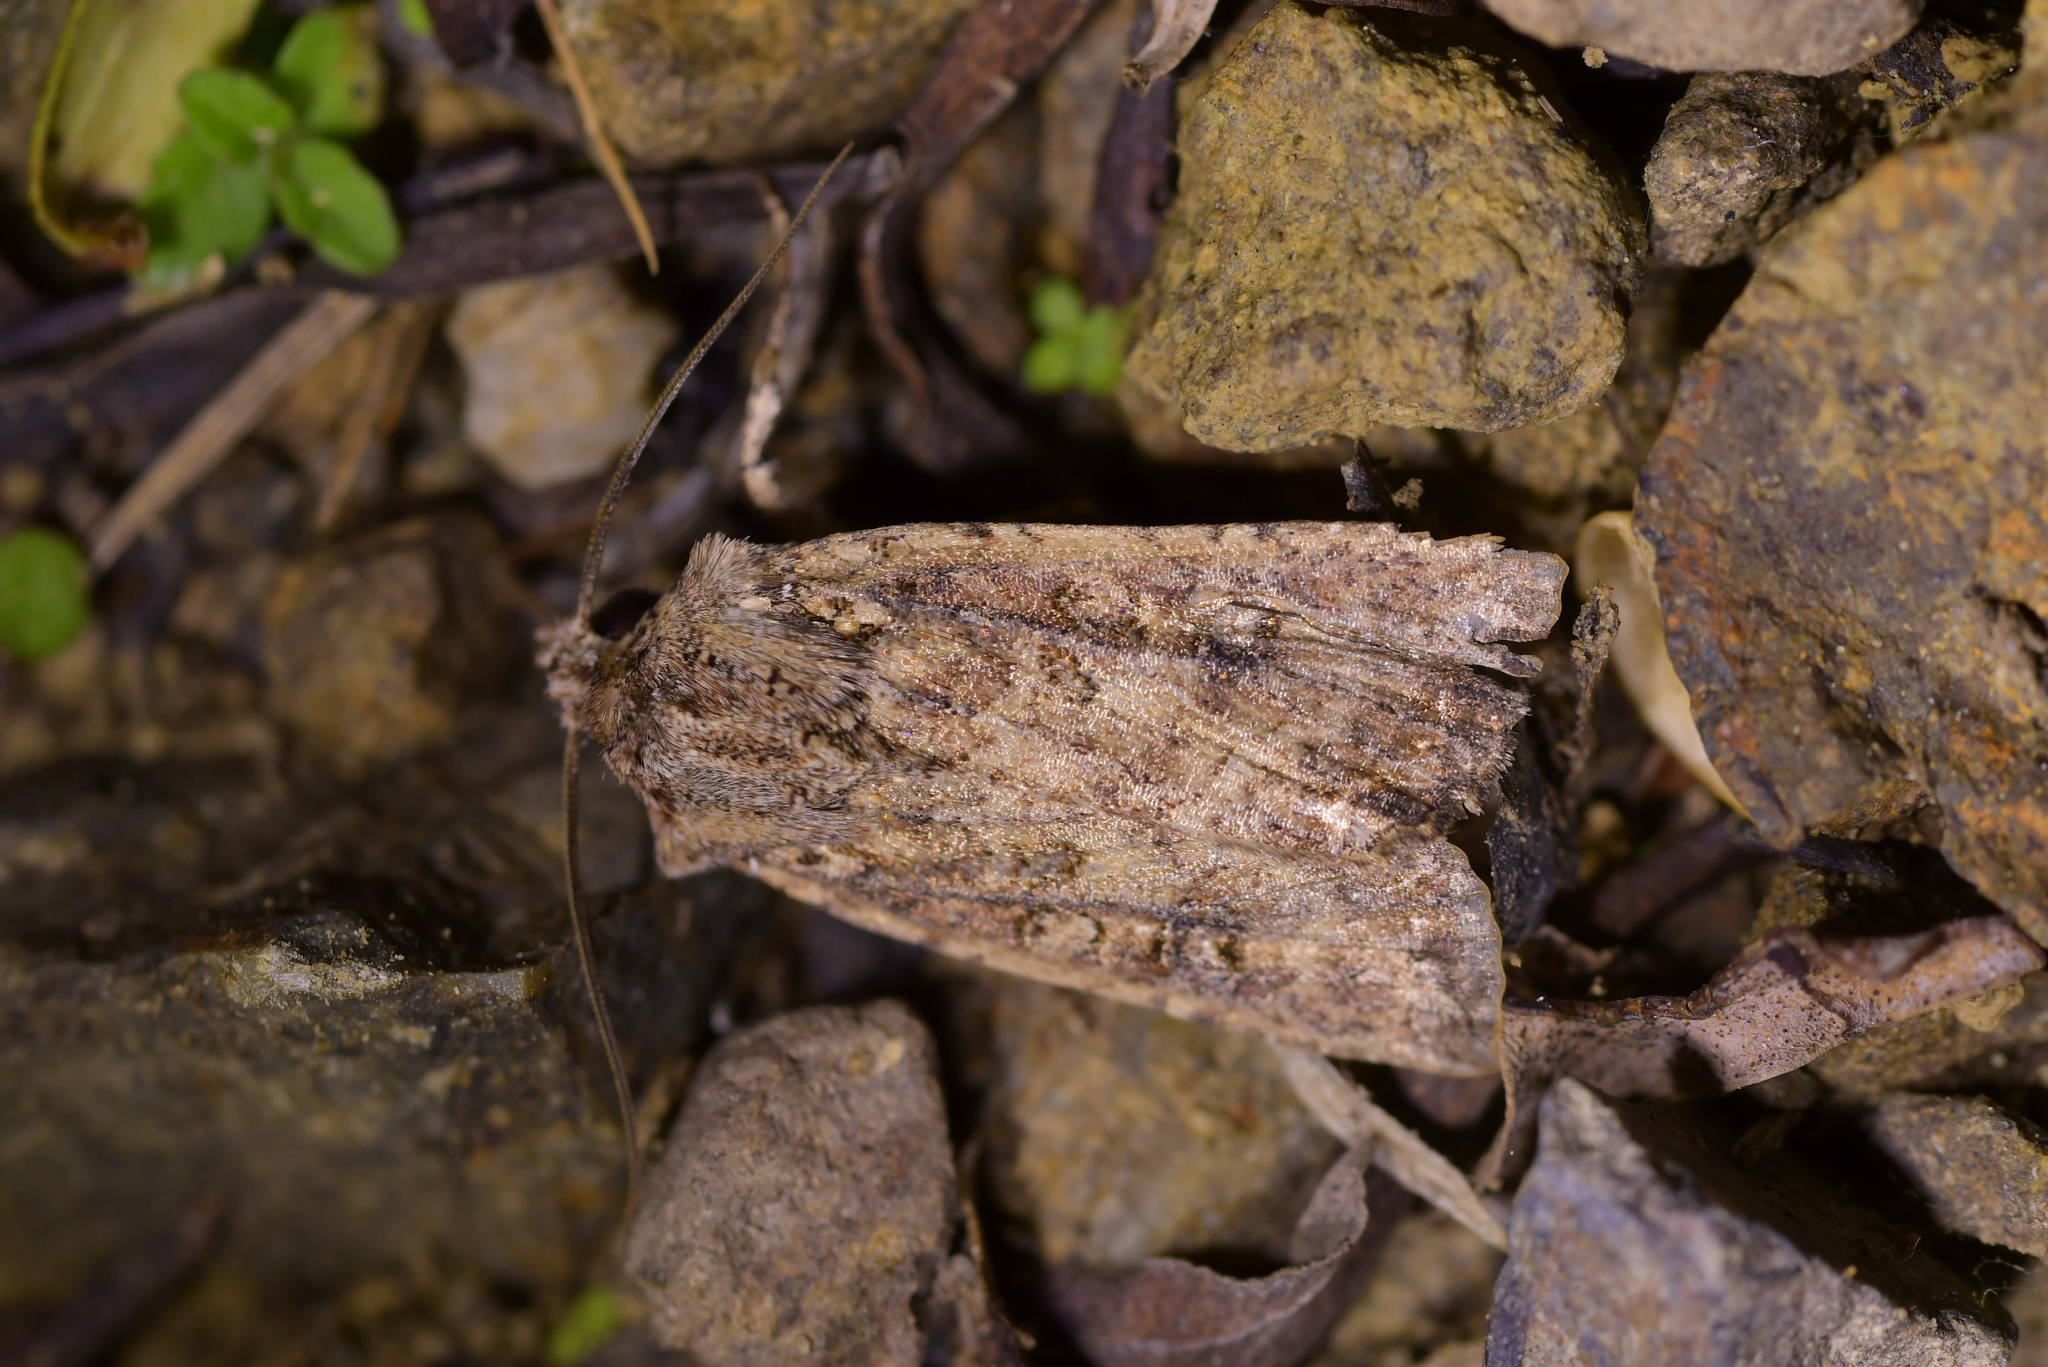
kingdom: Animalia
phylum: Arthropoda
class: Insecta
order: Lepidoptera
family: Noctuidae
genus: Ichneutica
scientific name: Ichneutica morosa
